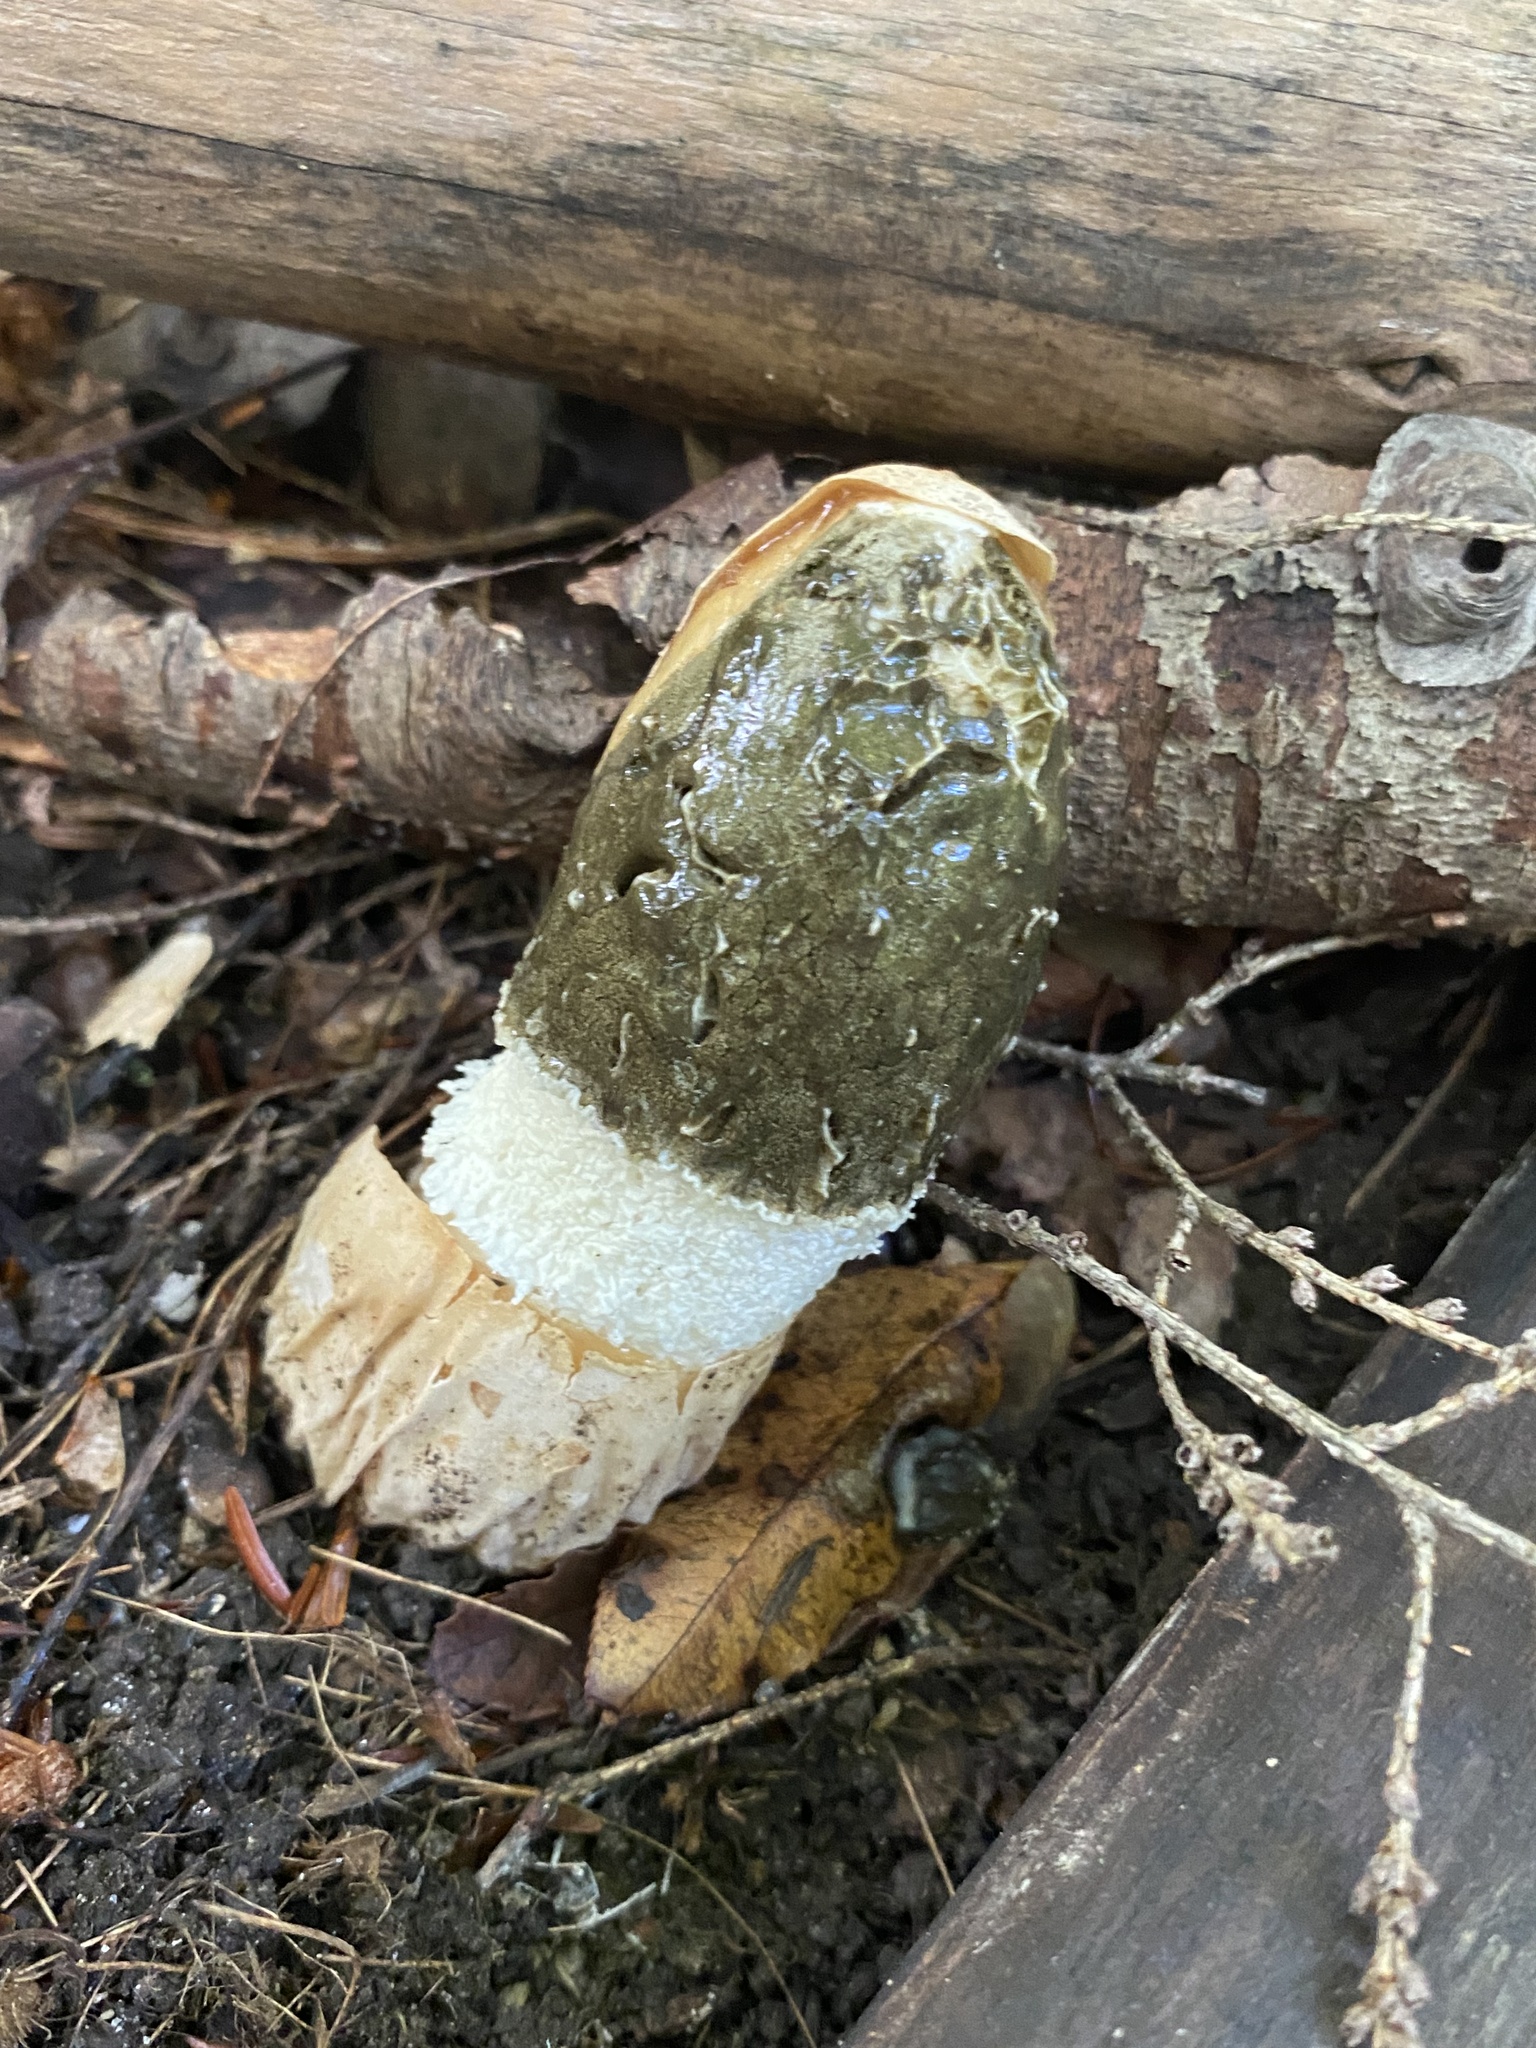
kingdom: Fungi
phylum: Basidiomycota
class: Agaricomycetes
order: Phallales
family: Phallaceae
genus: Phallus
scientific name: Phallus indusiatus
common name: Bridal veil stinkhorn
